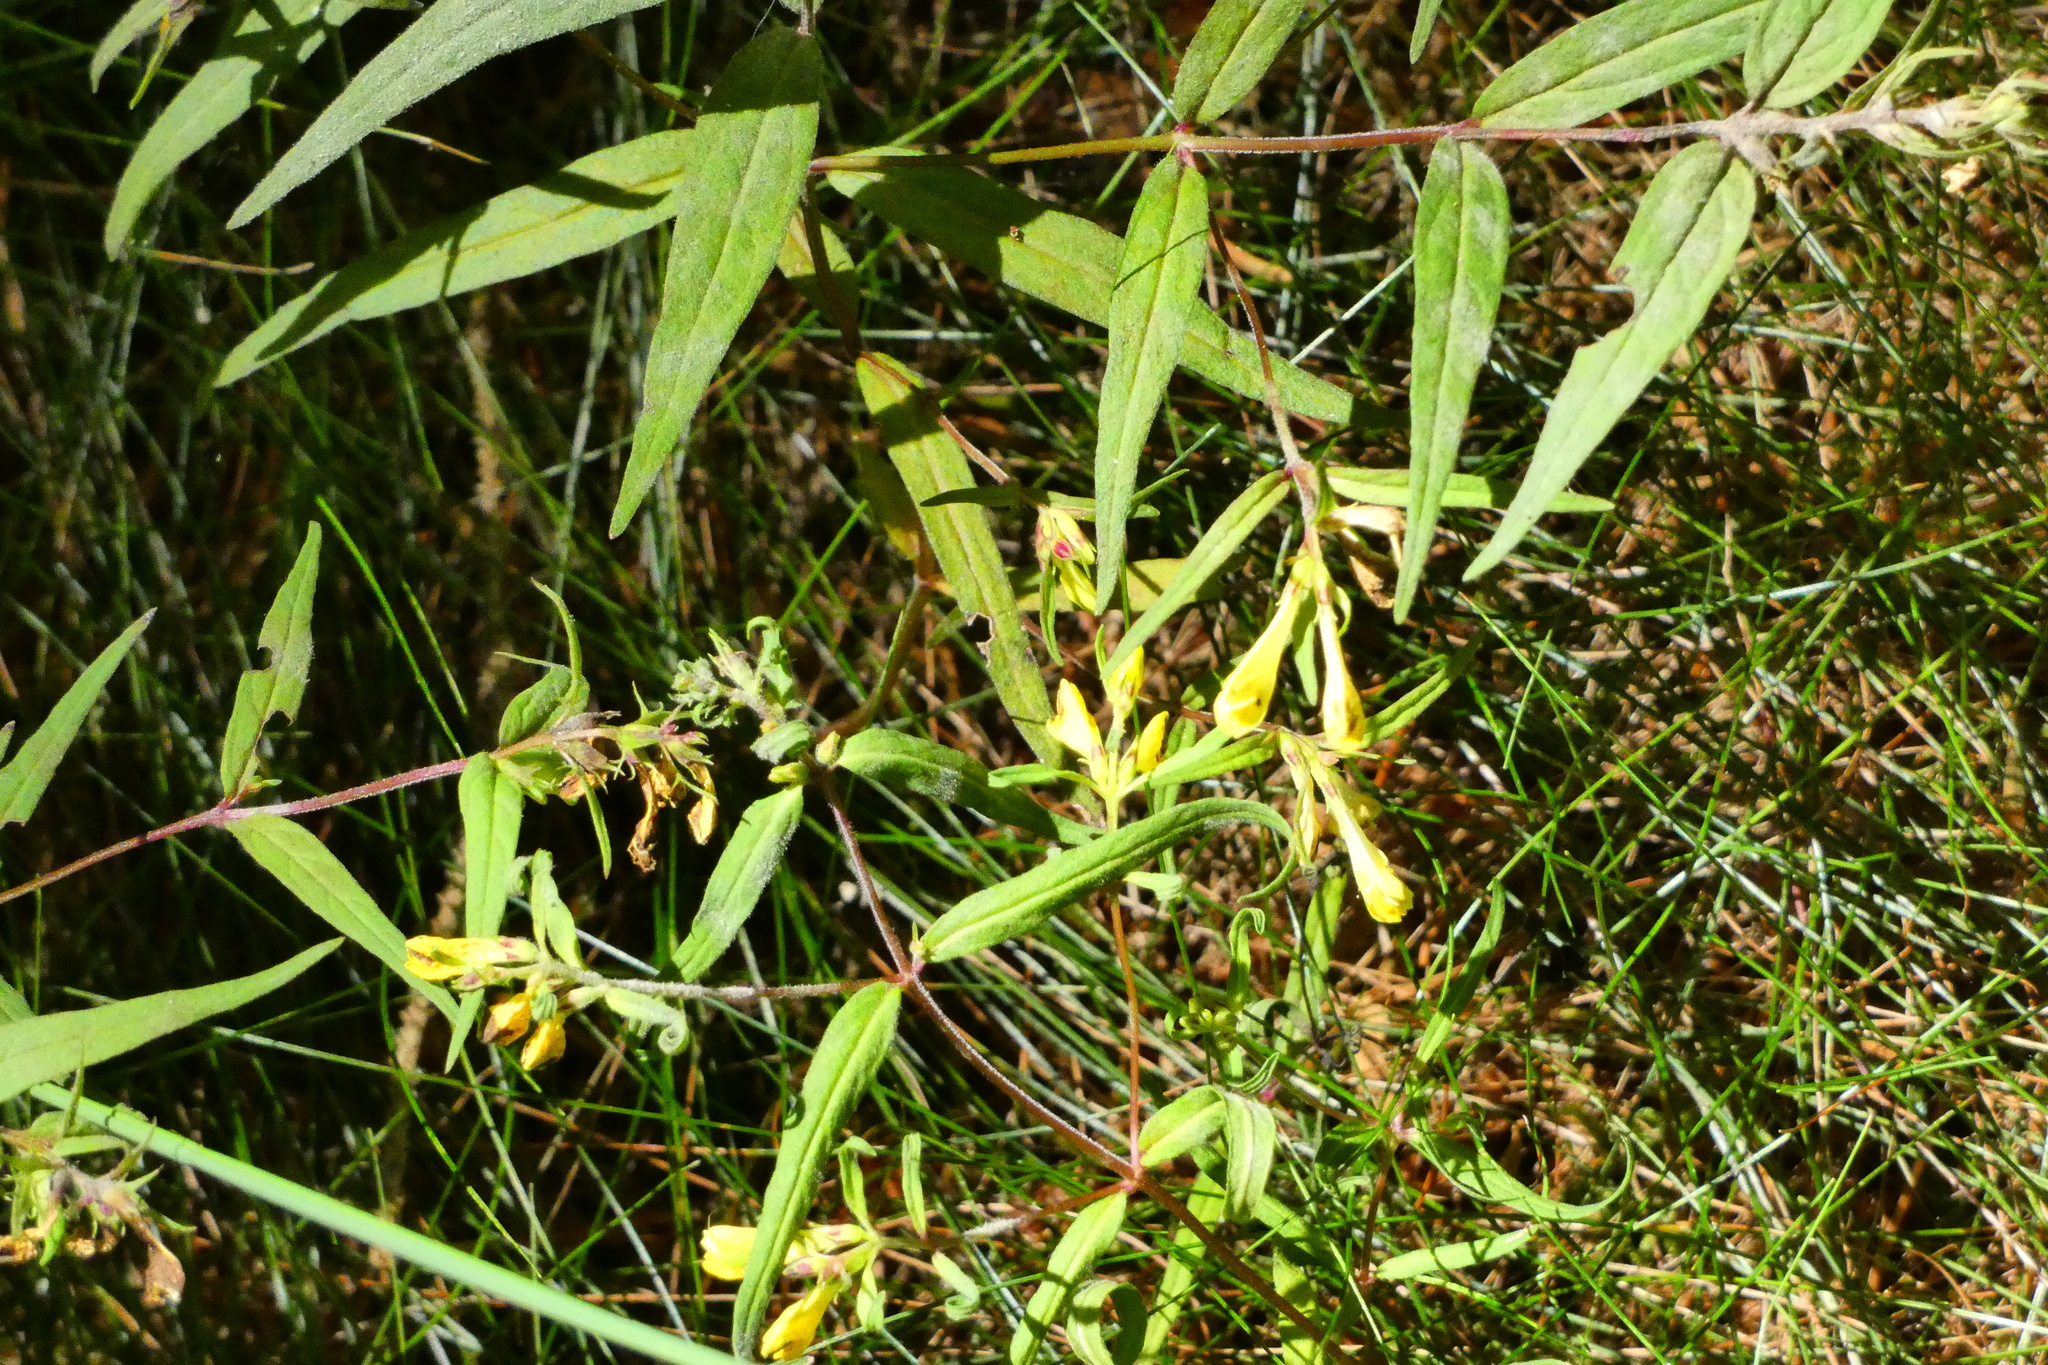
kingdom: Plantae
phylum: Tracheophyta
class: Magnoliopsida
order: Lamiales
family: Orobanchaceae
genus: Melampyrum
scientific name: Melampyrum pratense
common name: Common cow-wheat
